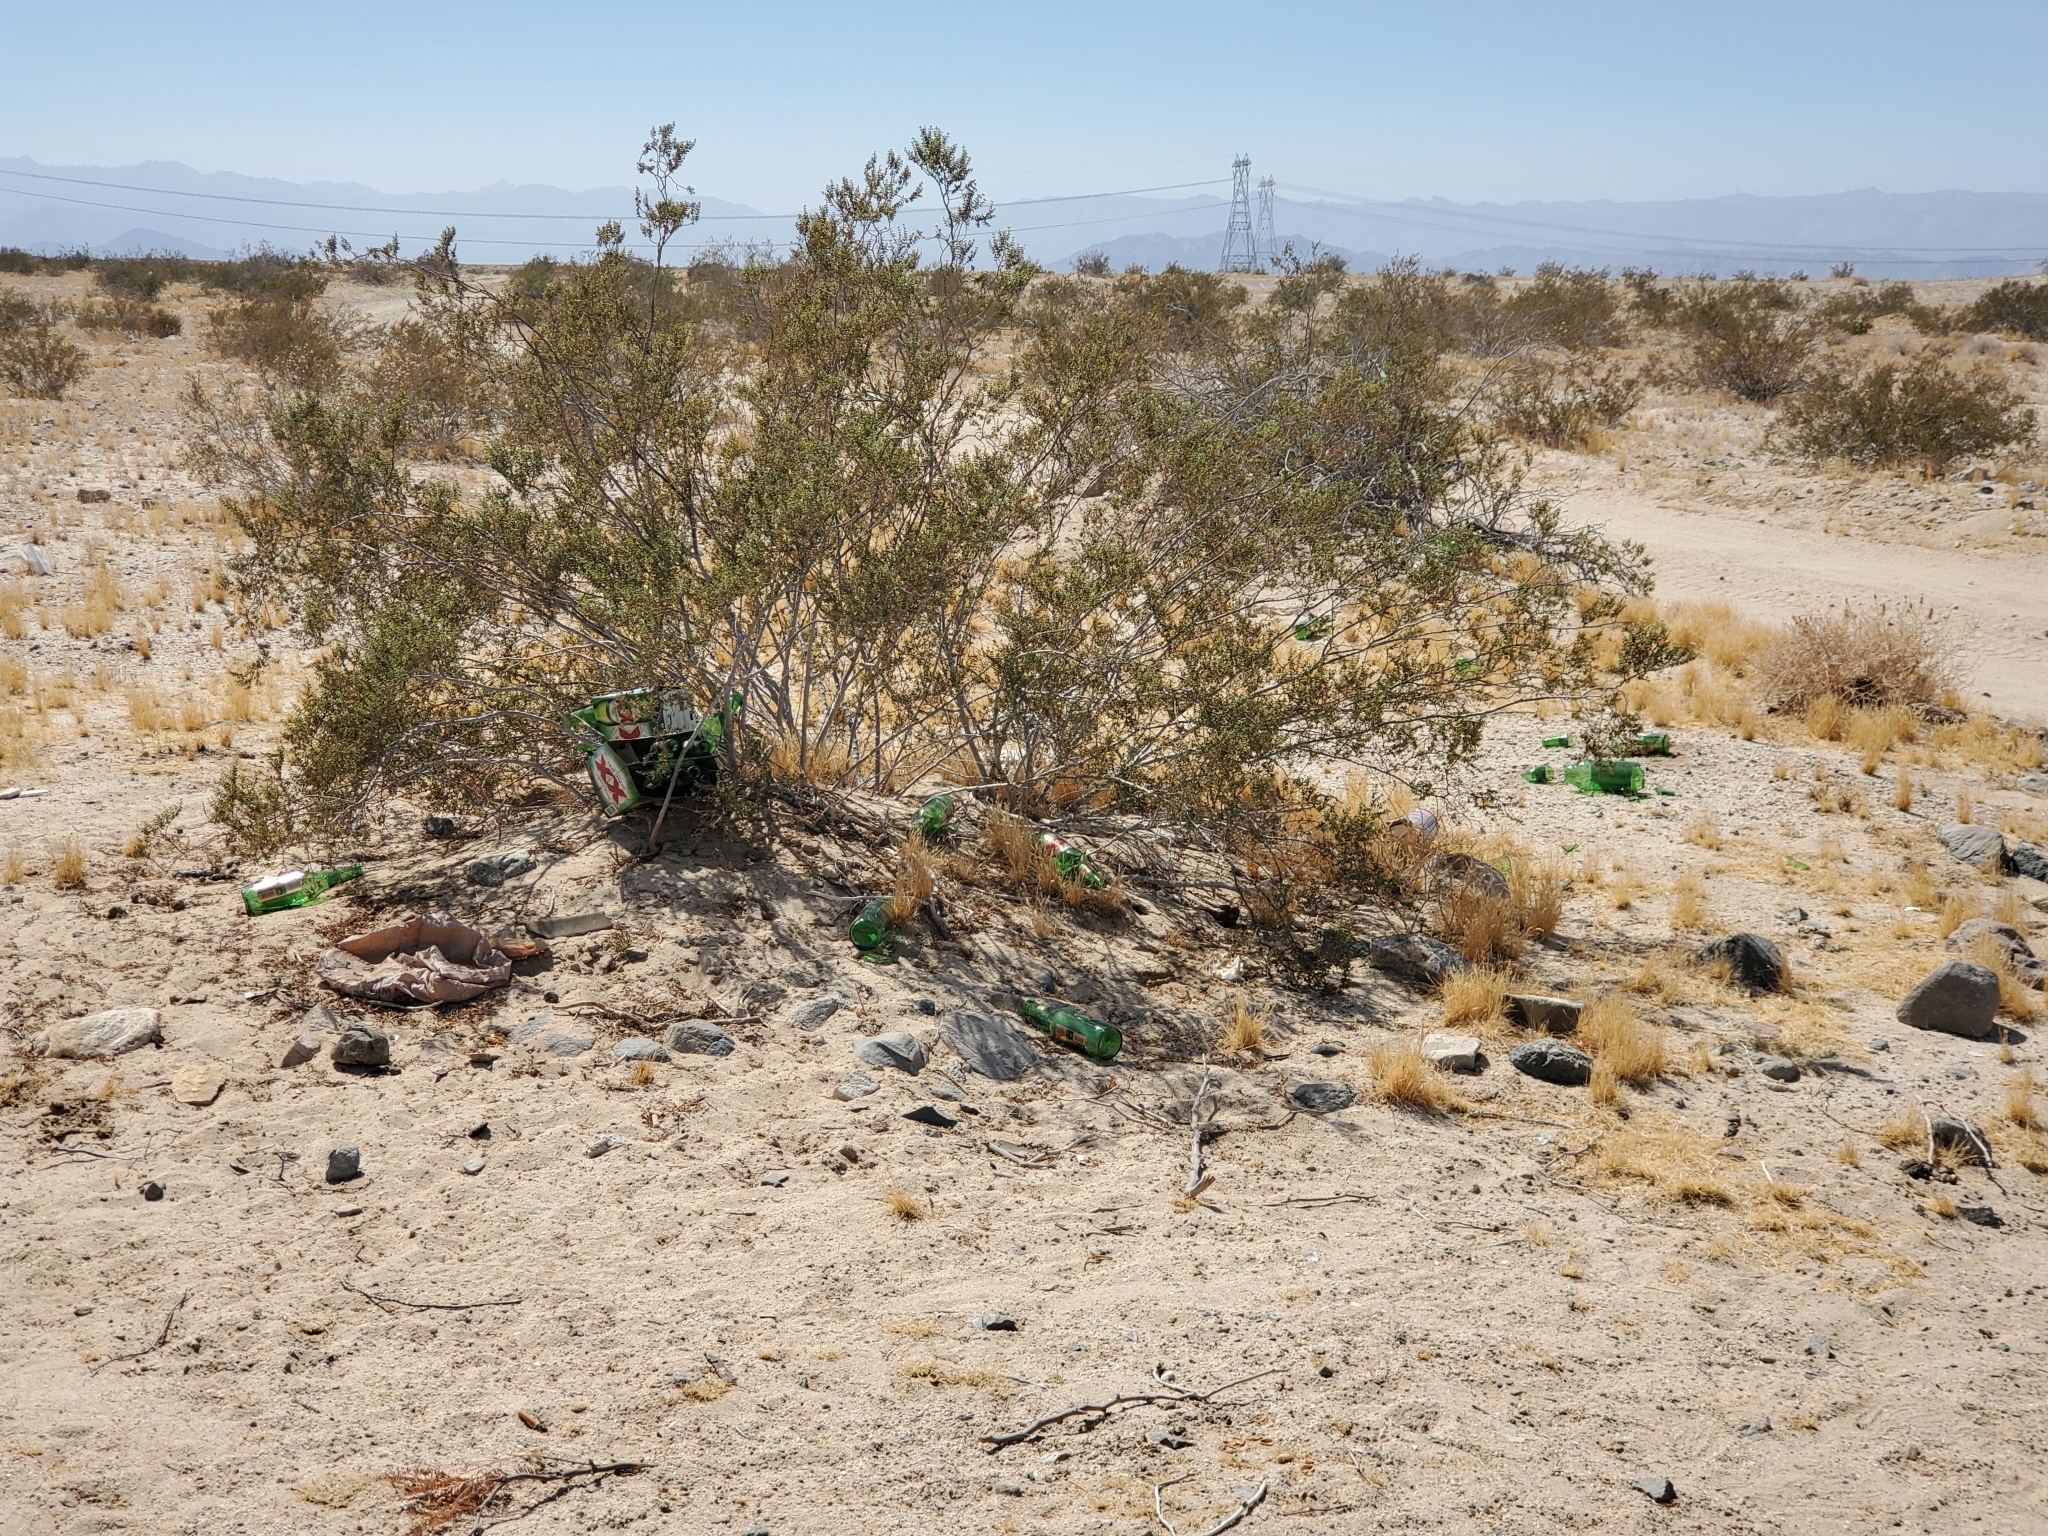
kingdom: Plantae
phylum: Tracheophyta
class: Magnoliopsida
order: Zygophyllales
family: Zygophyllaceae
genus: Larrea
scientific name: Larrea tridentata
